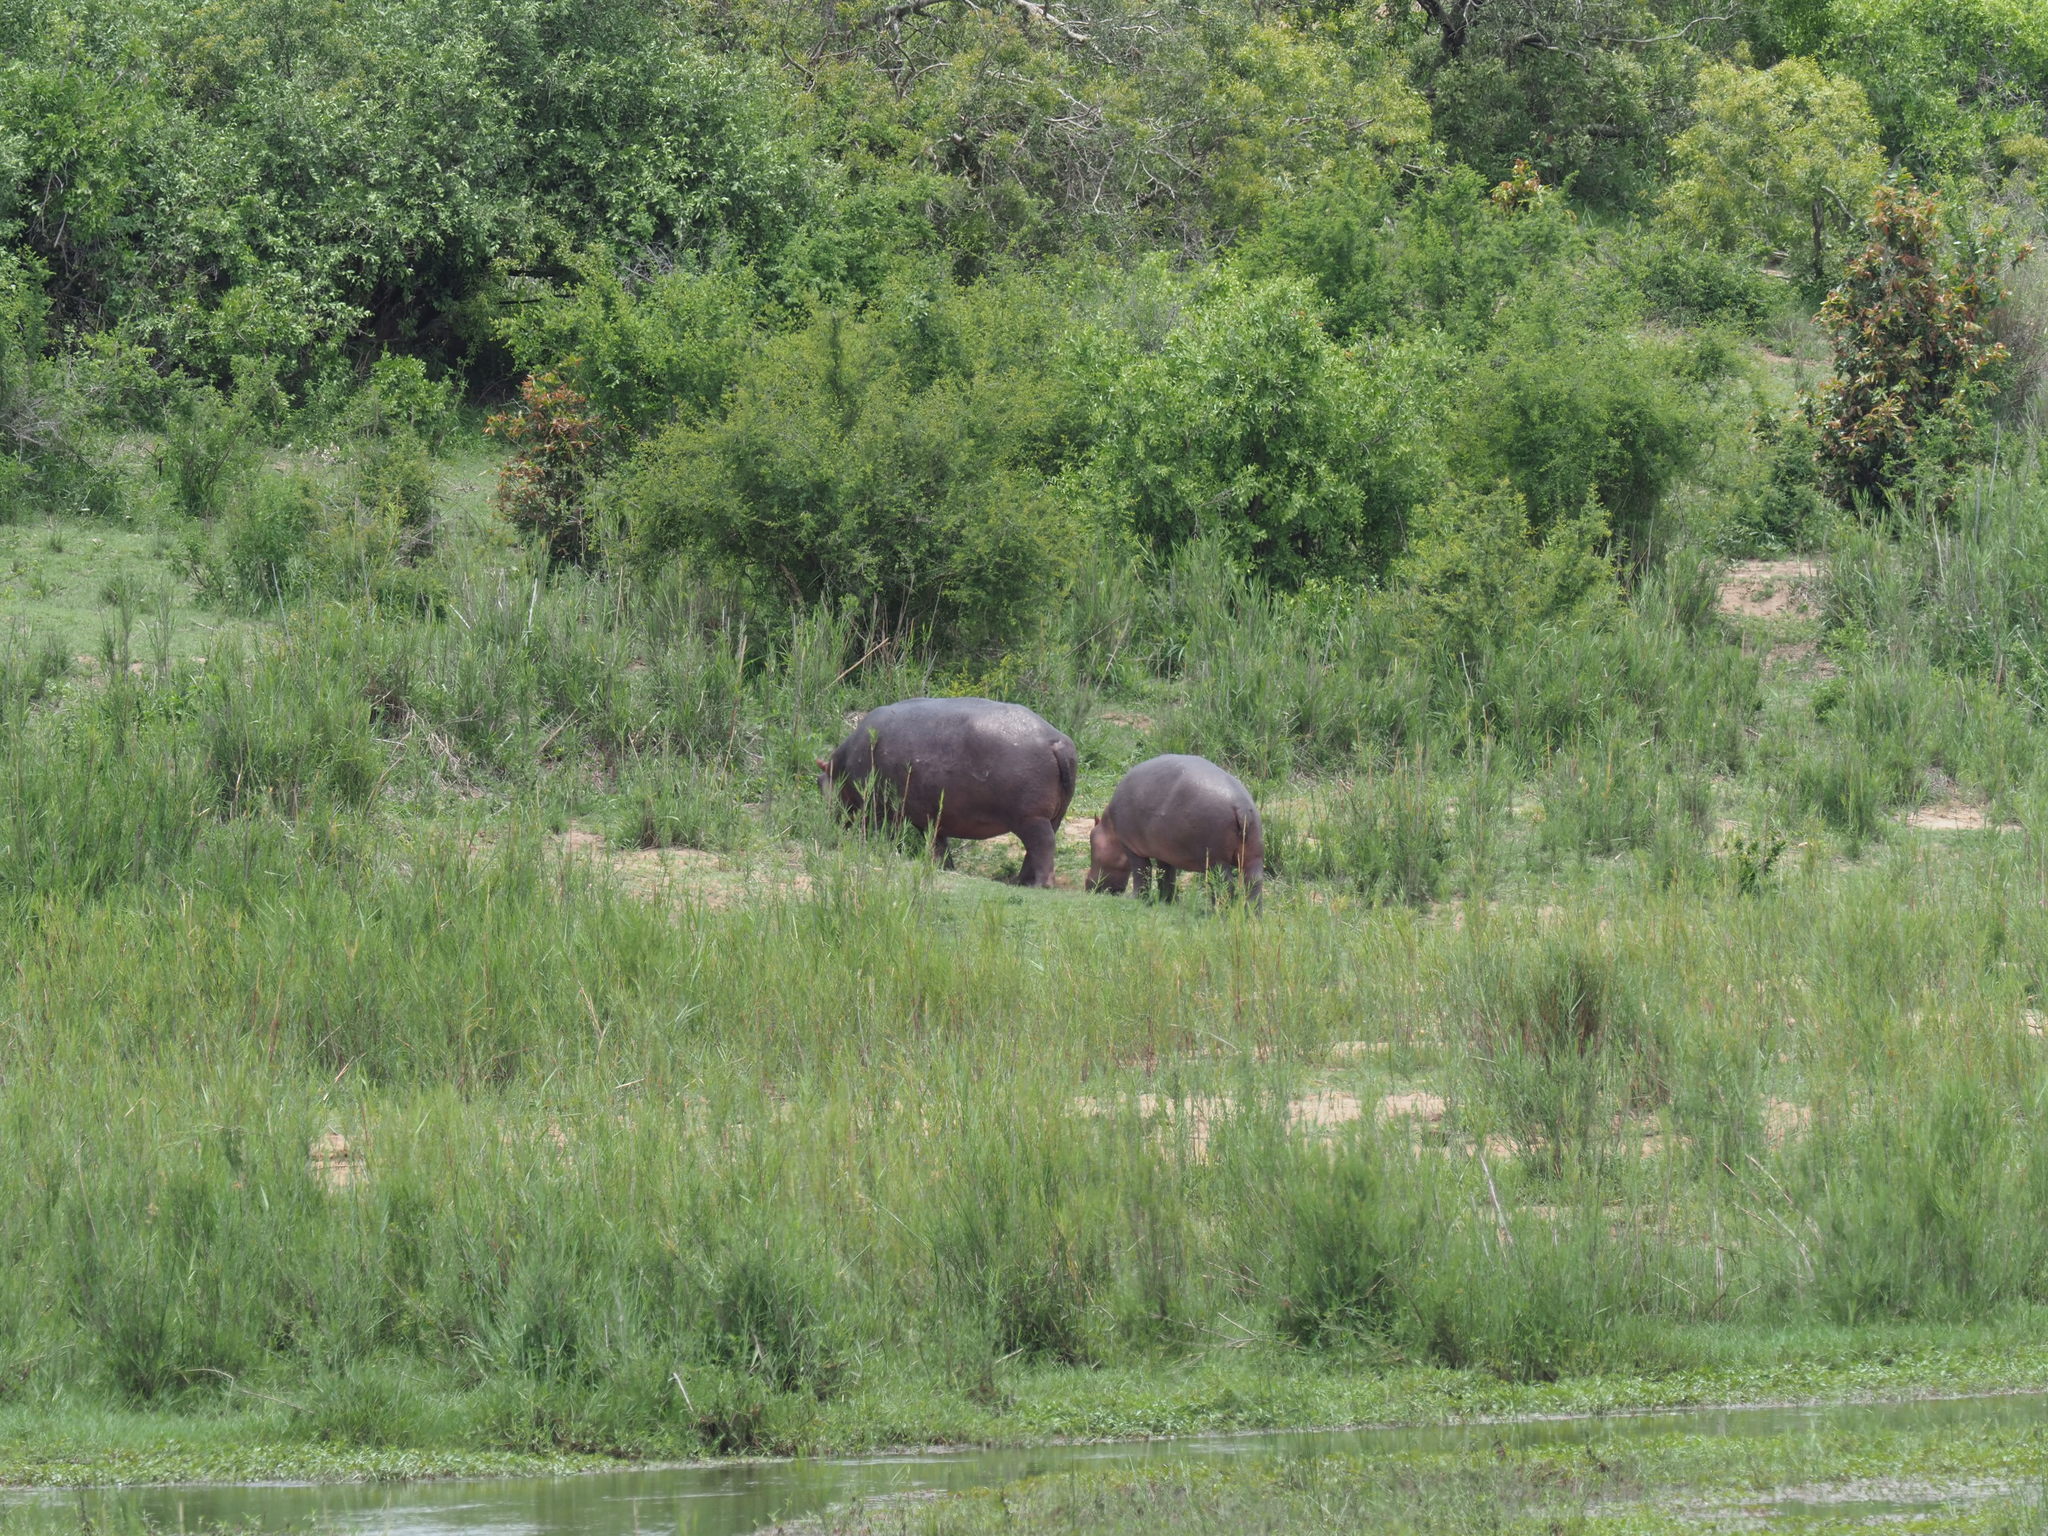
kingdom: Animalia
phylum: Chordata
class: Mammalia
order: Artiodactyla
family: Hippopotamidae
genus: Hippopotamus
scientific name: Hippopotamus amphibius
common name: Common hippopotamus
